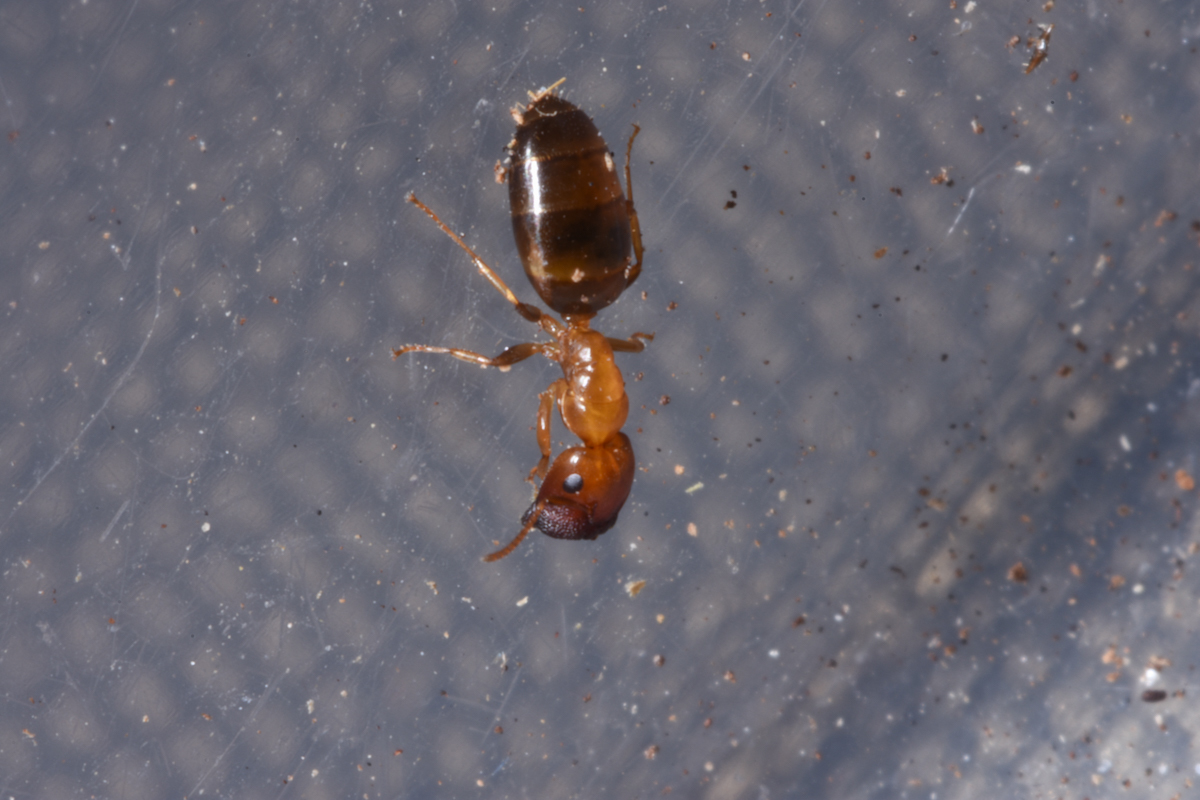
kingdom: Animalia
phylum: Arthropoda
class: Insecta
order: Hymenoptera
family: Formicidae
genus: Colobopsis
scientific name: Colobopsis
